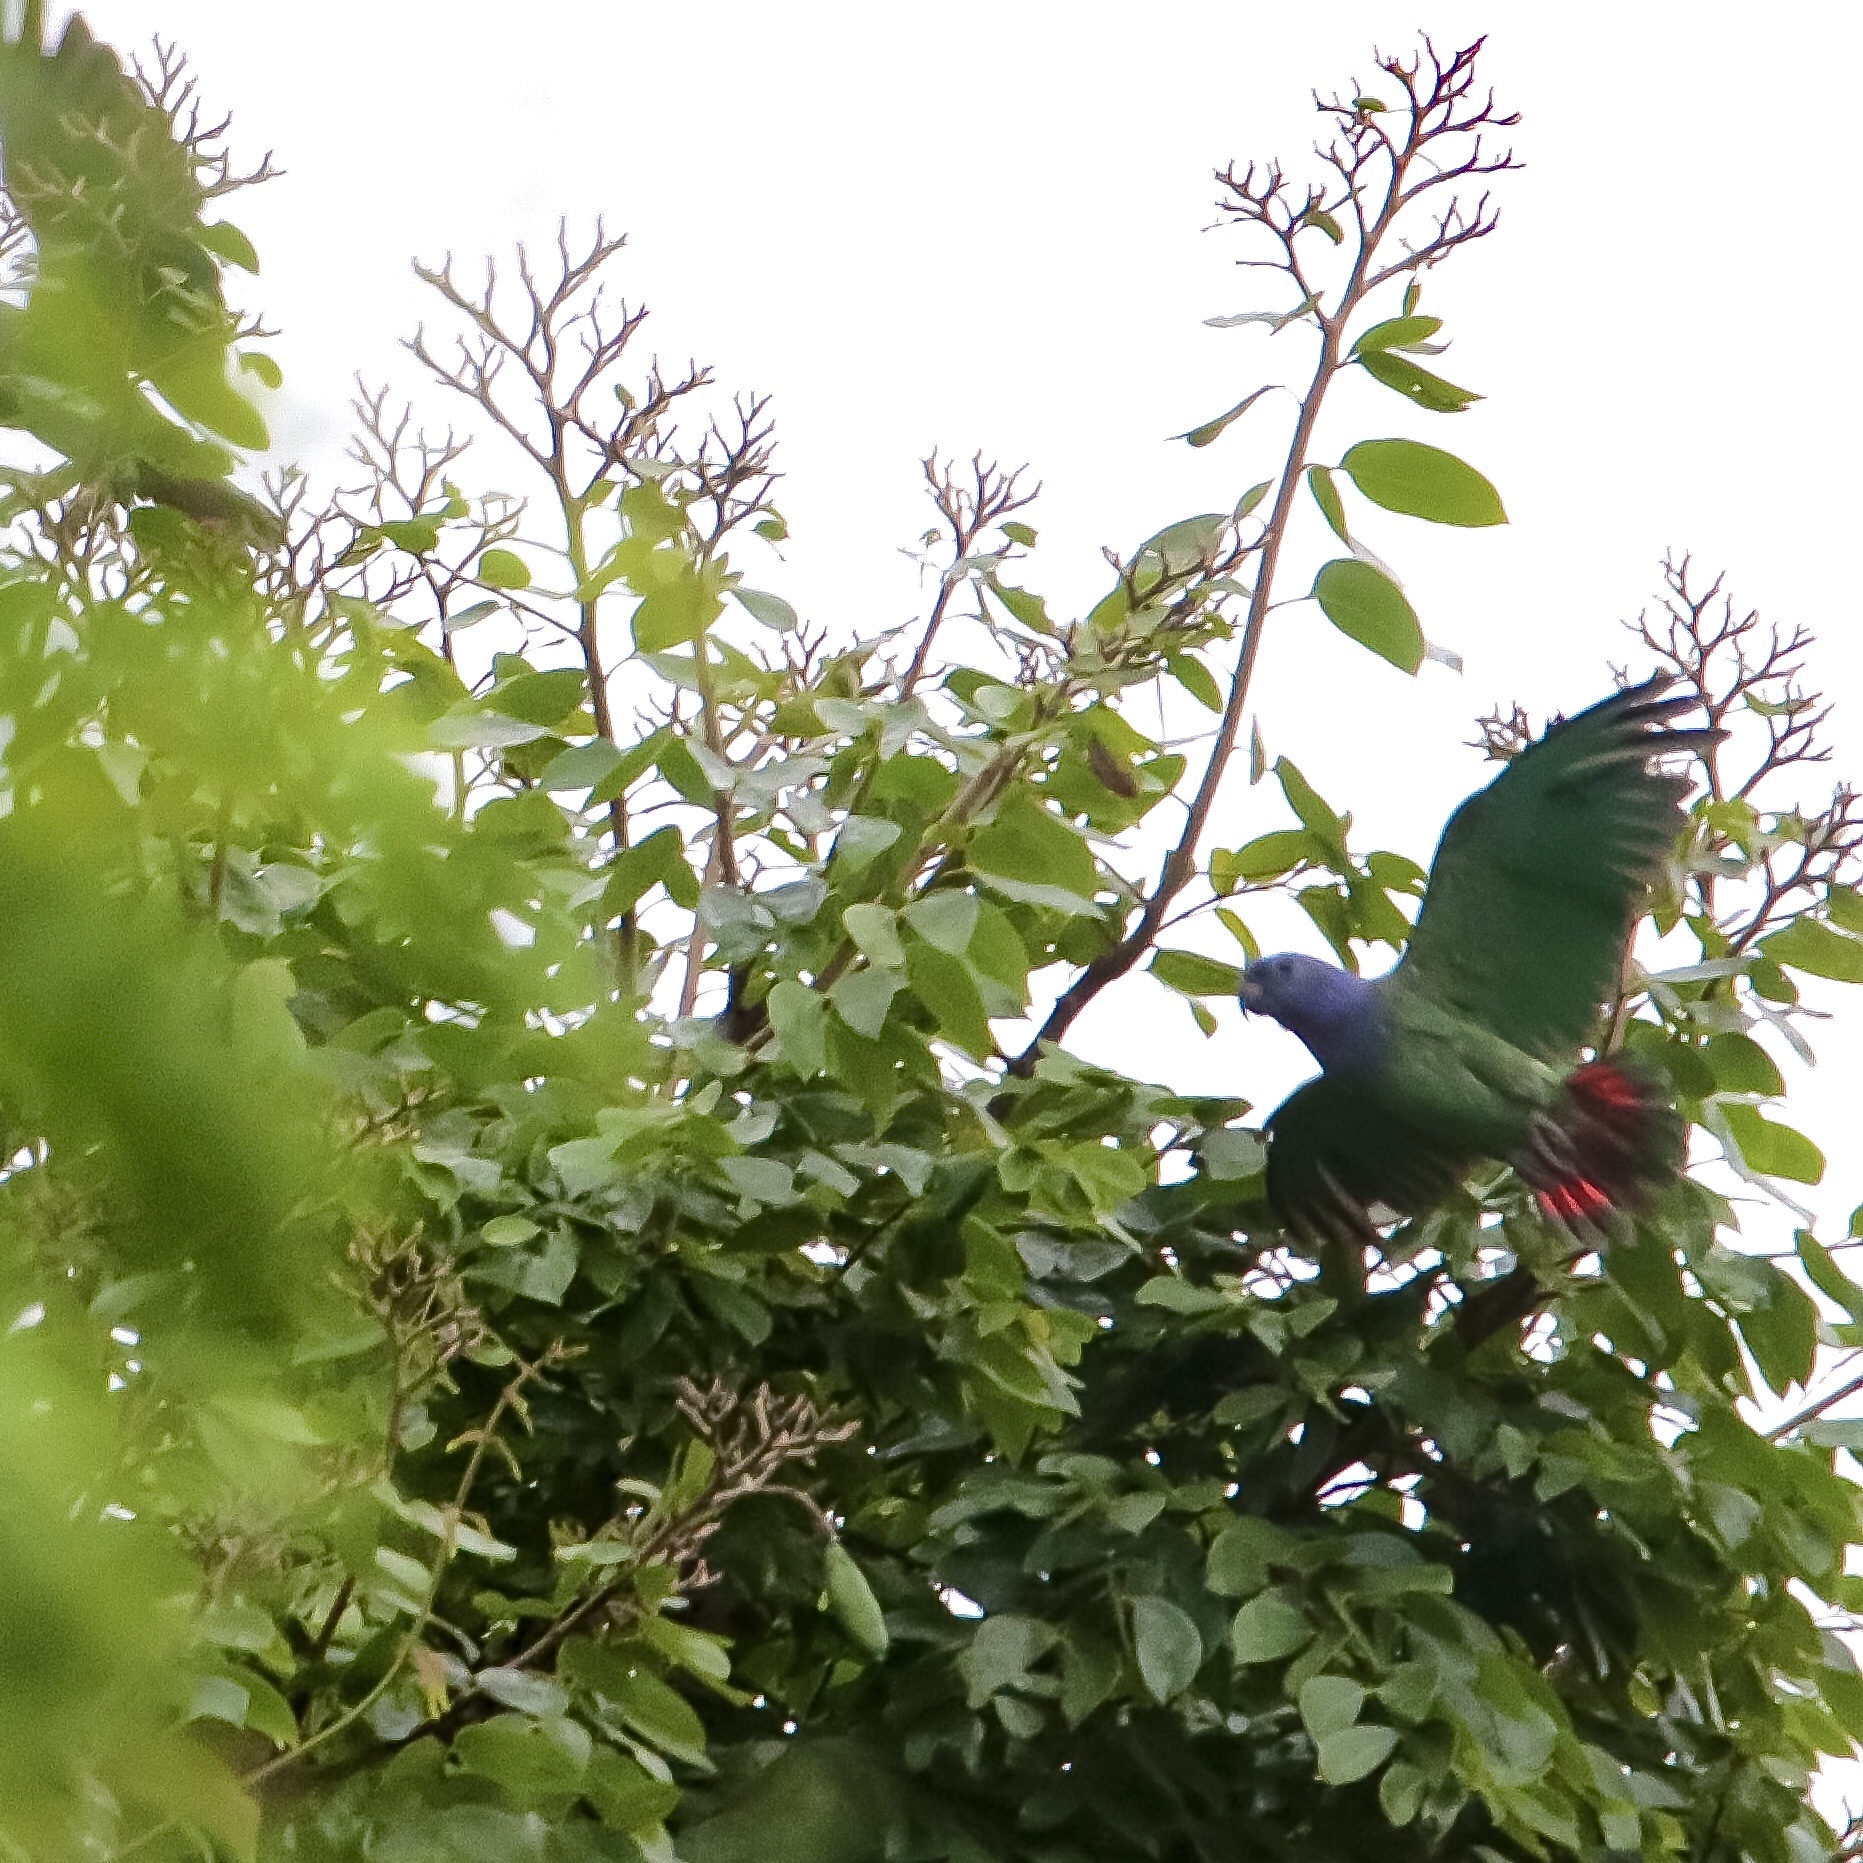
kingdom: Animalia
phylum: Chordata
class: Aves
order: Psittaciformes
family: Psittacidae
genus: Pionus
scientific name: Pionus menstruus
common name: Blue-headed parrot
